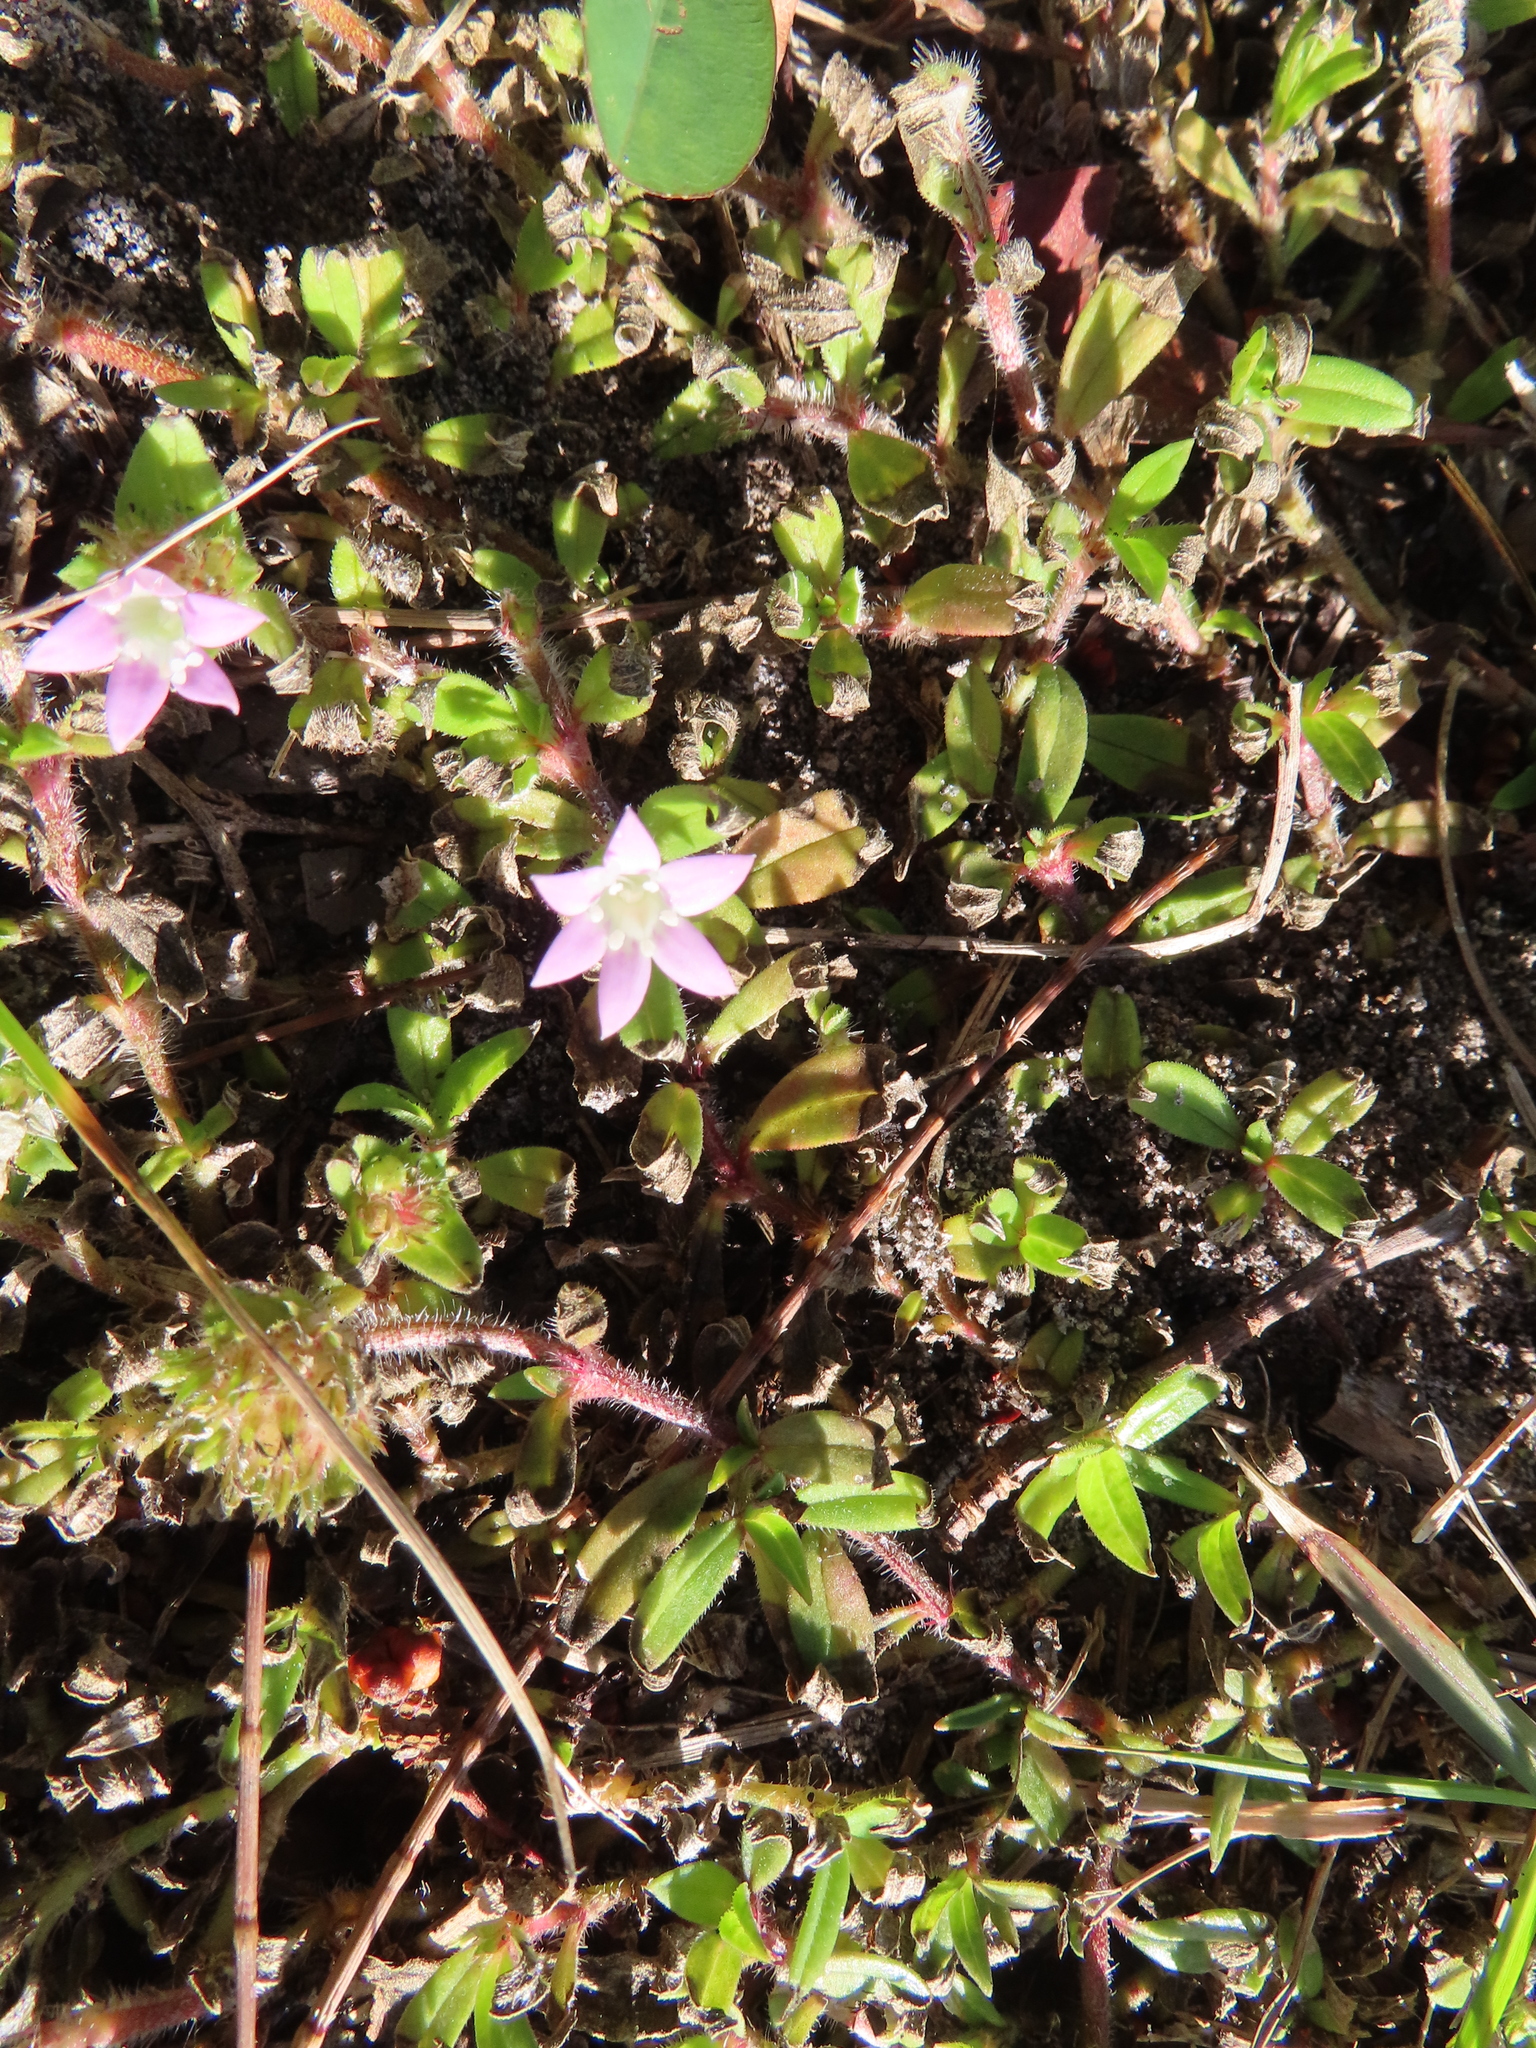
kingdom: Plantae
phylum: Tracheophyta
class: Magnoliopsida
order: Gentianales
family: Rubiaceae
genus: Richardia
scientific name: Richardia grandiflora
